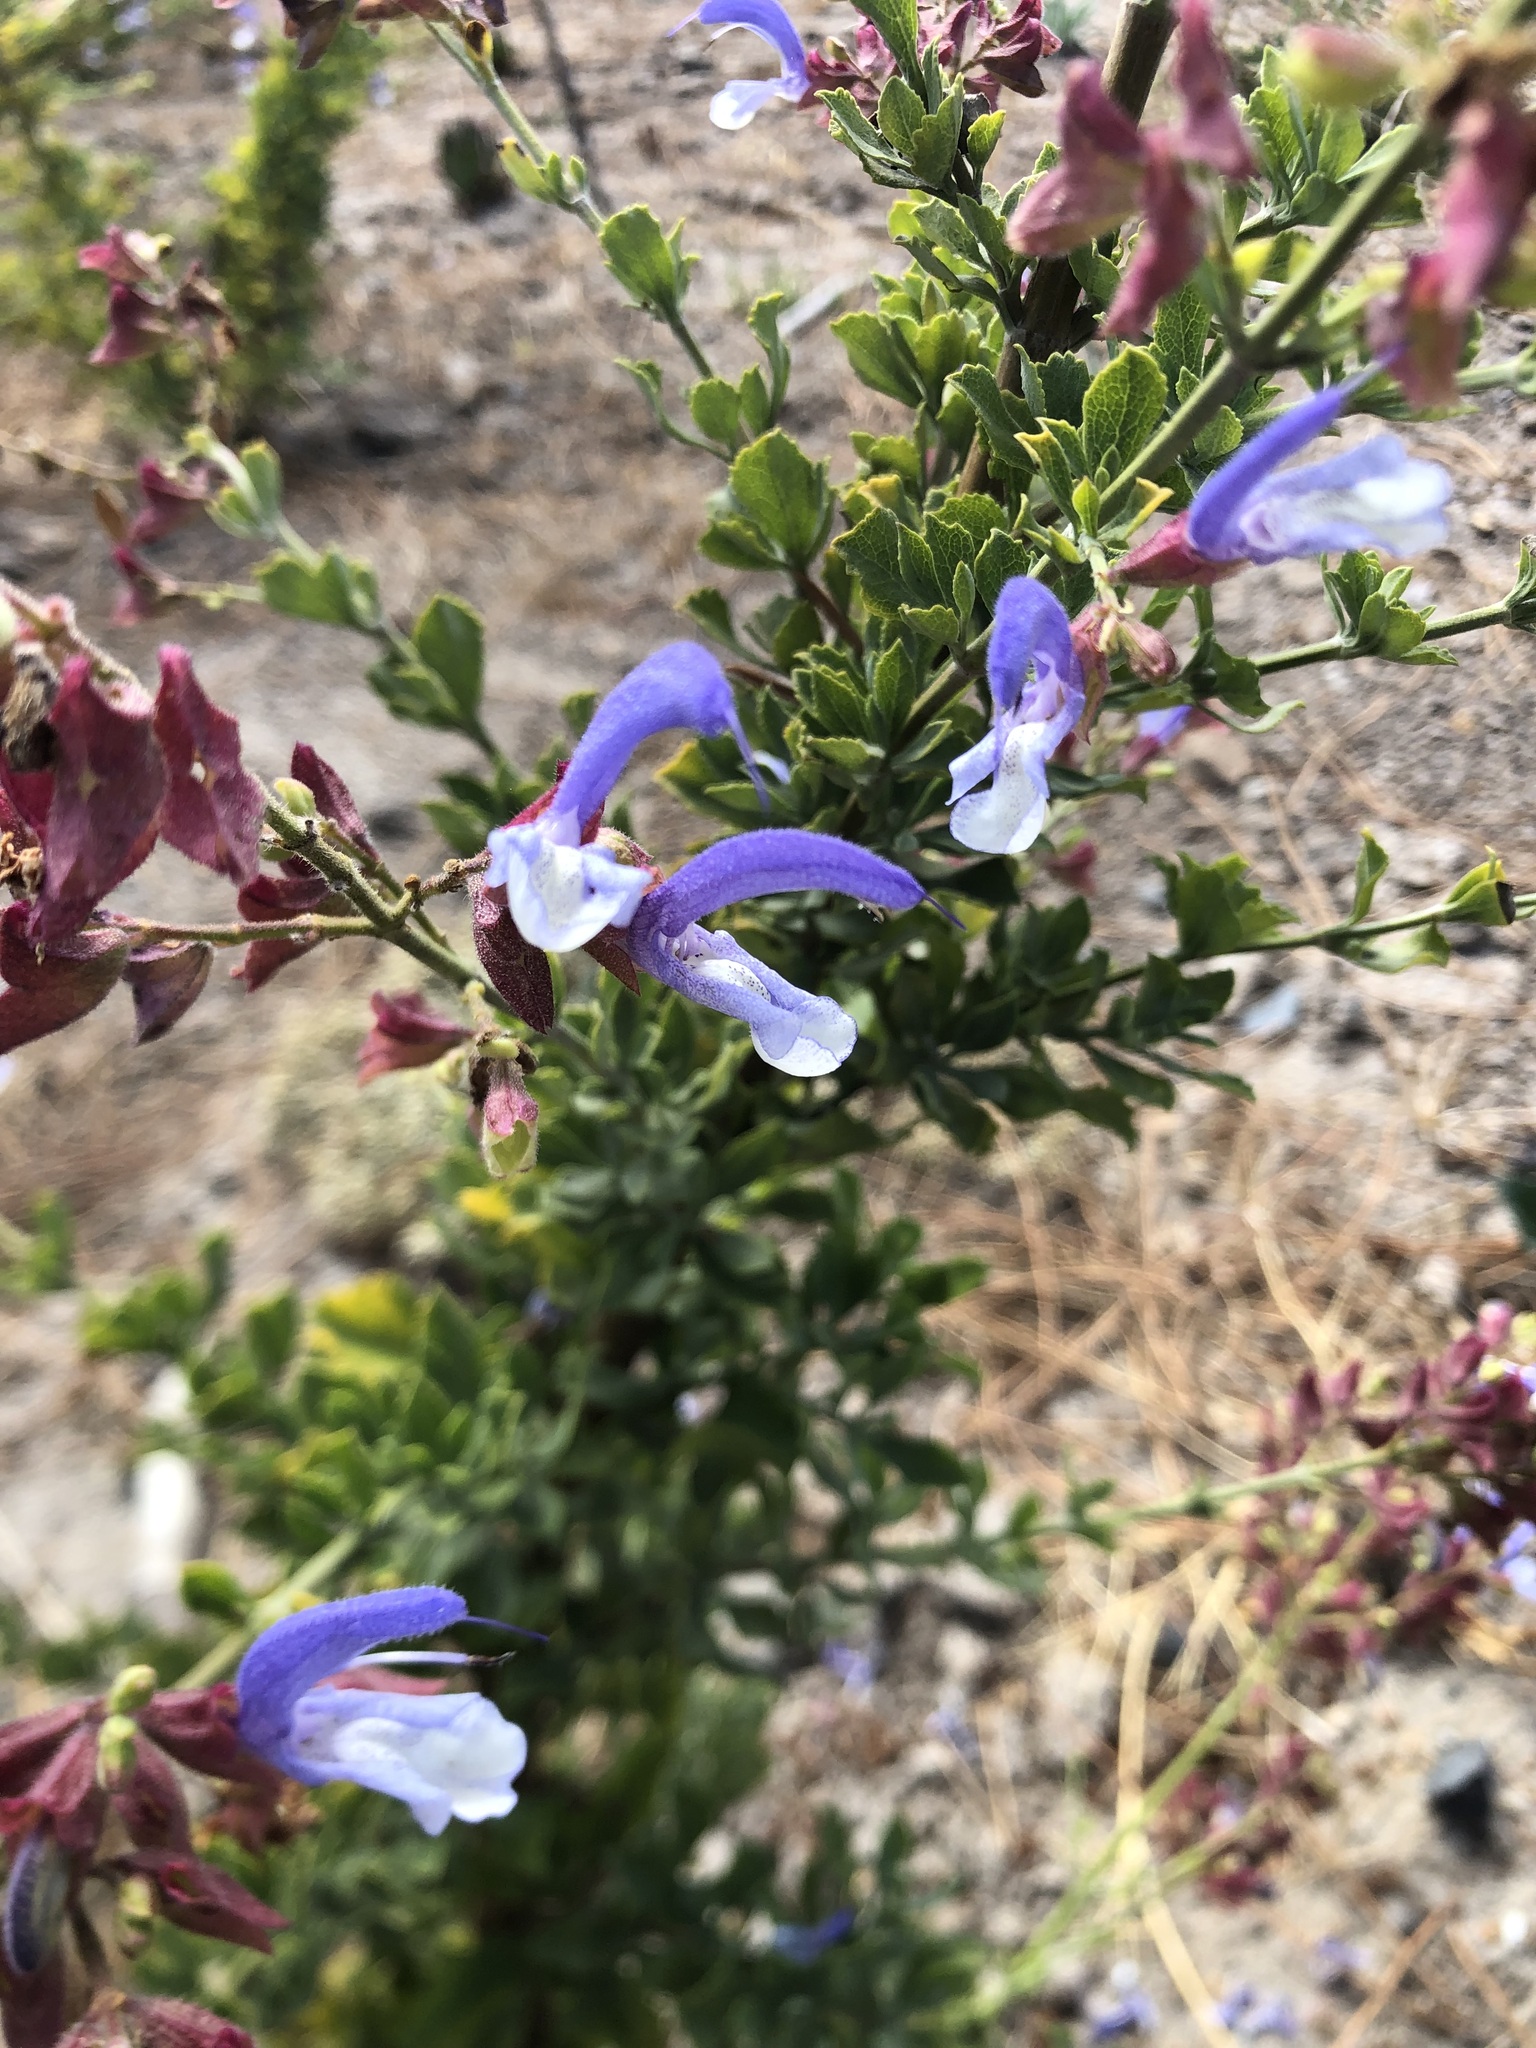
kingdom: Plantae
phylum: Tracheophyta
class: Magnoliopsida
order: Lamiales
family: Lamiaceae
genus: Salvia
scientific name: Salvia chamelaeagnea
